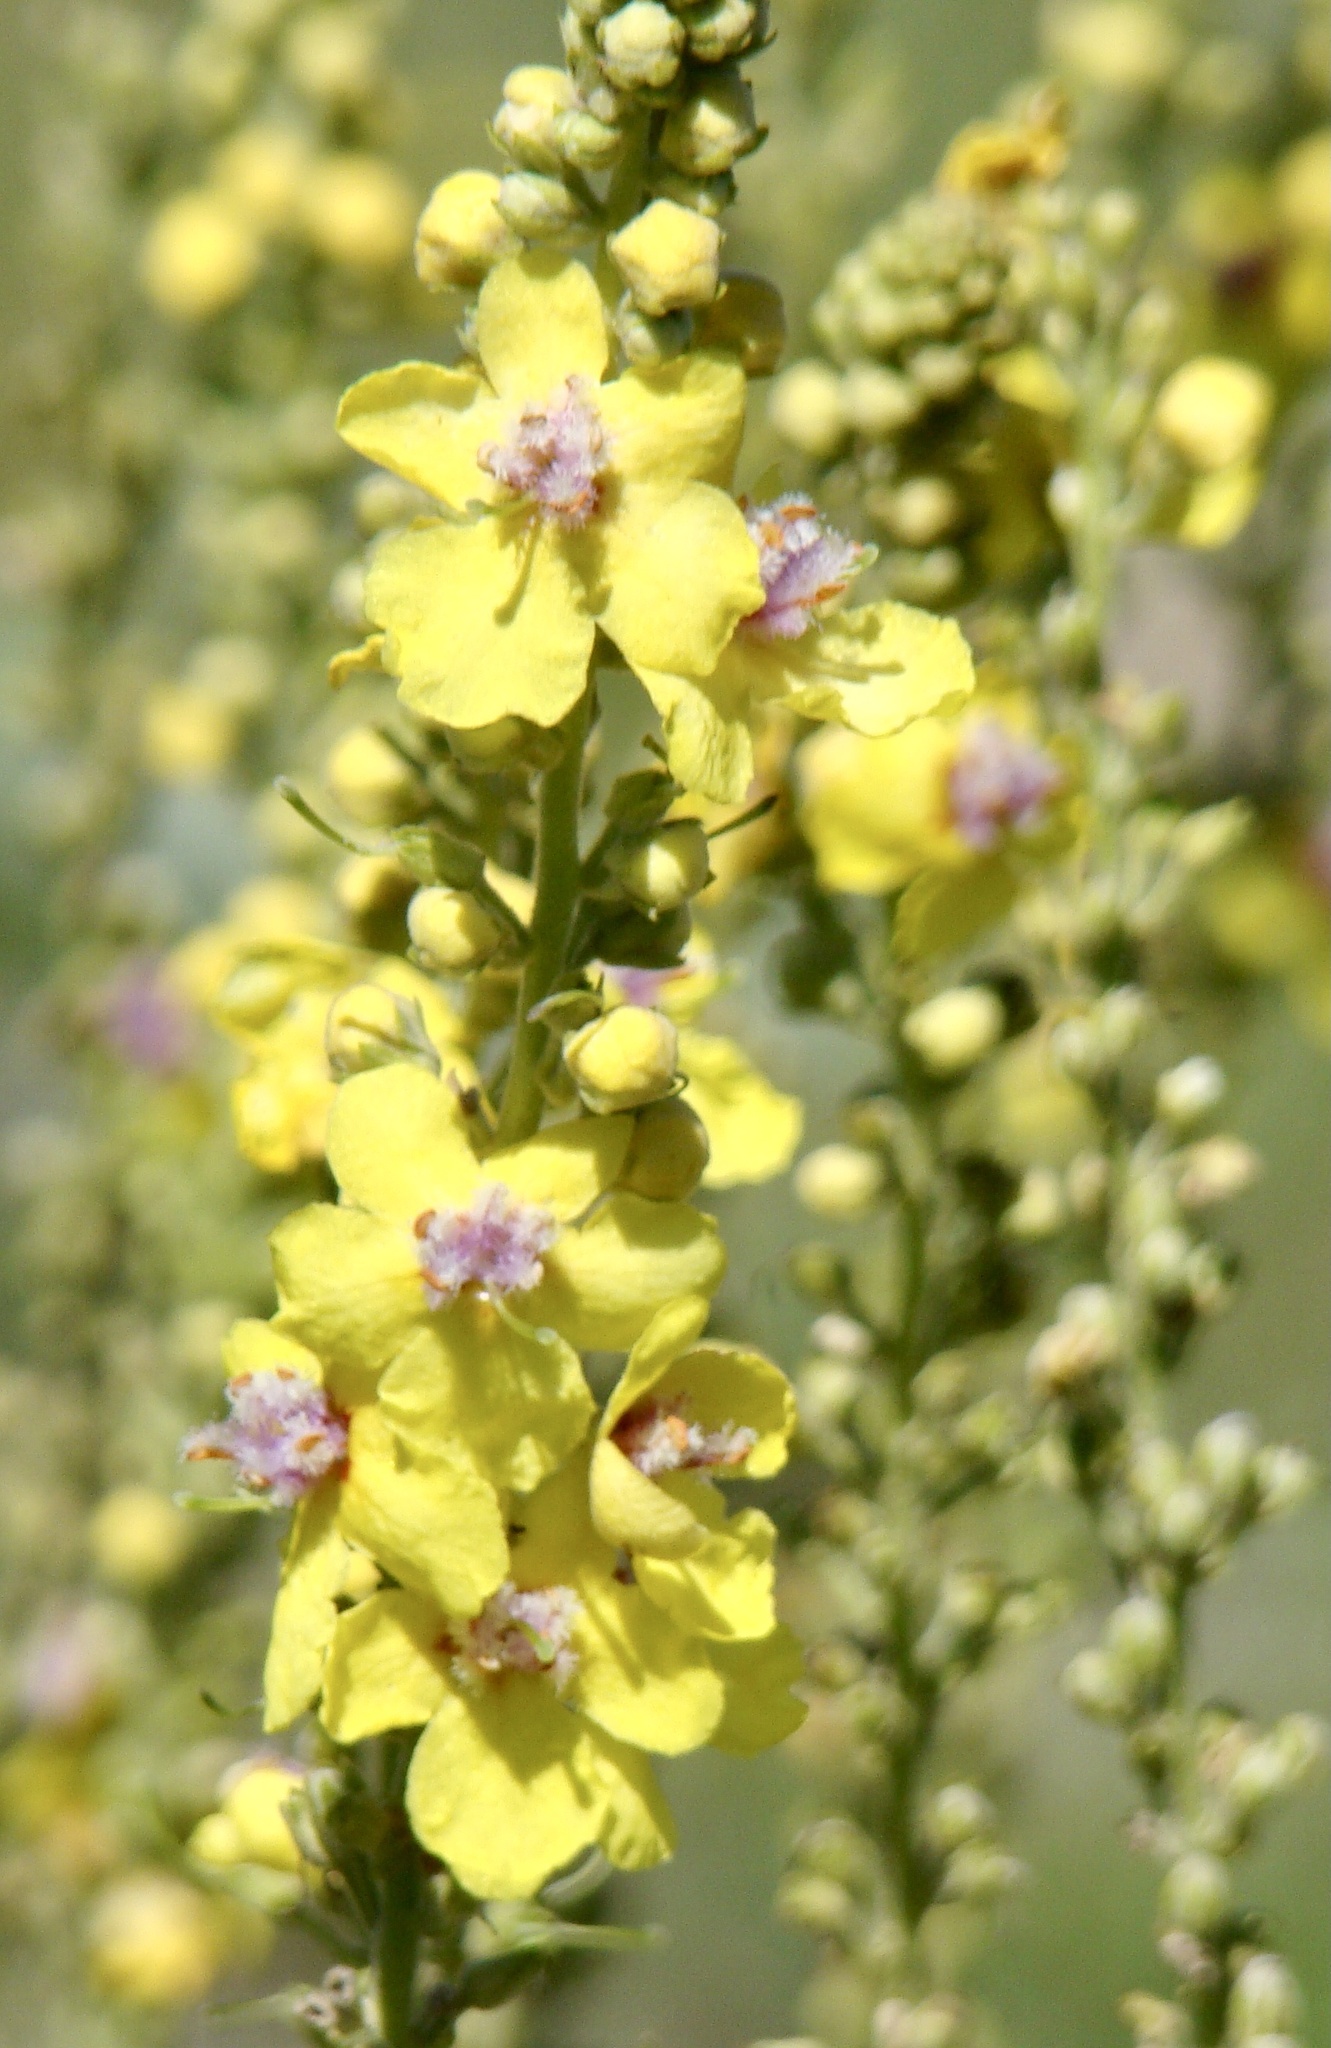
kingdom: Plantae
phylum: Tracheophyta
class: Magnoliopsida
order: Lamiales
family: Scrophulariaceae
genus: Verbascum
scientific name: Verbascum nigrum
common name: Dark mullein
